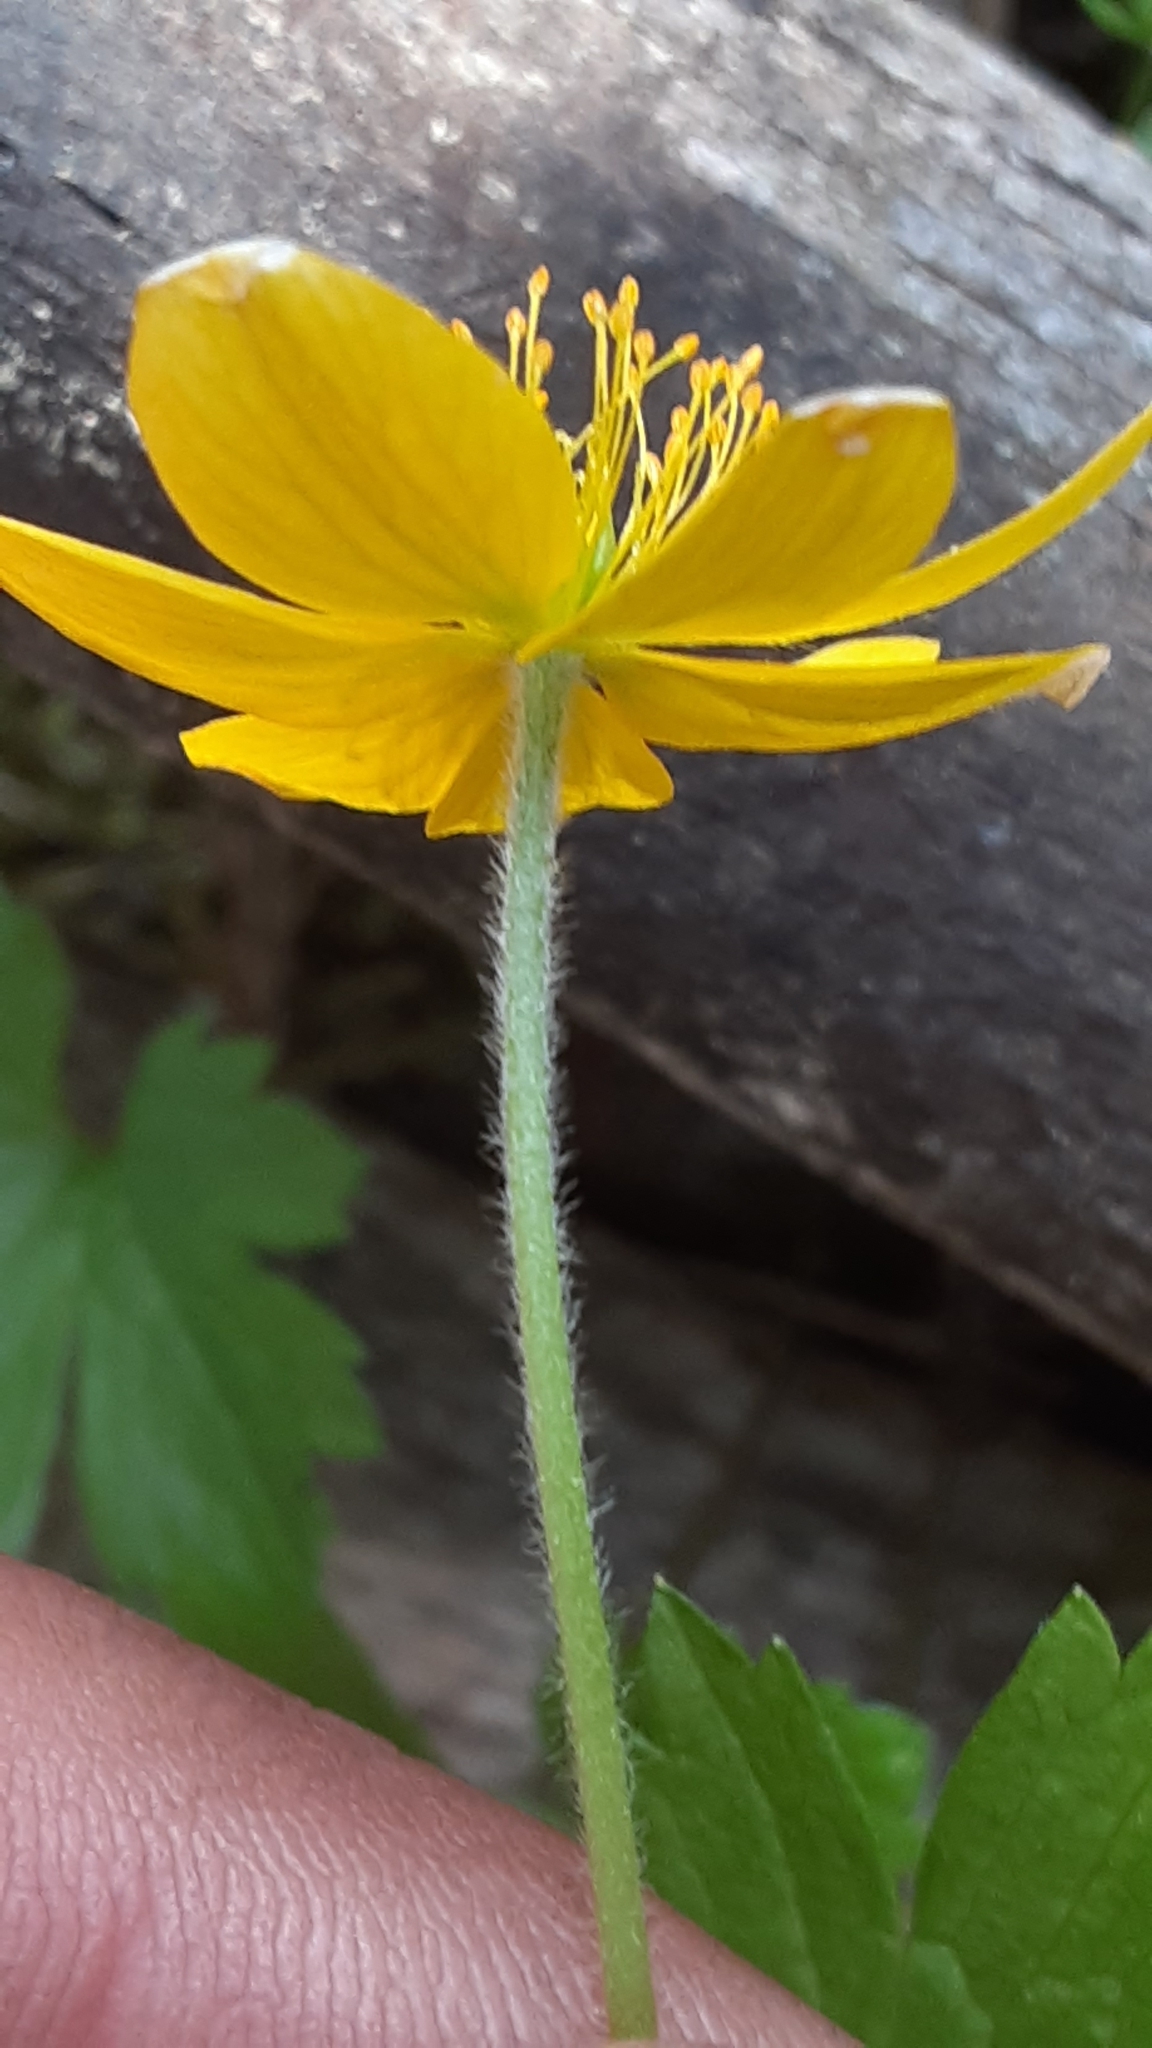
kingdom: Plantae
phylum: Tracheophyta
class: Magnoliopsida
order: Ranunculales
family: Ranunculaceae
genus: Anemonastrum
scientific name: Anemonastrum richardsonii
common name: Richardson's anemone
